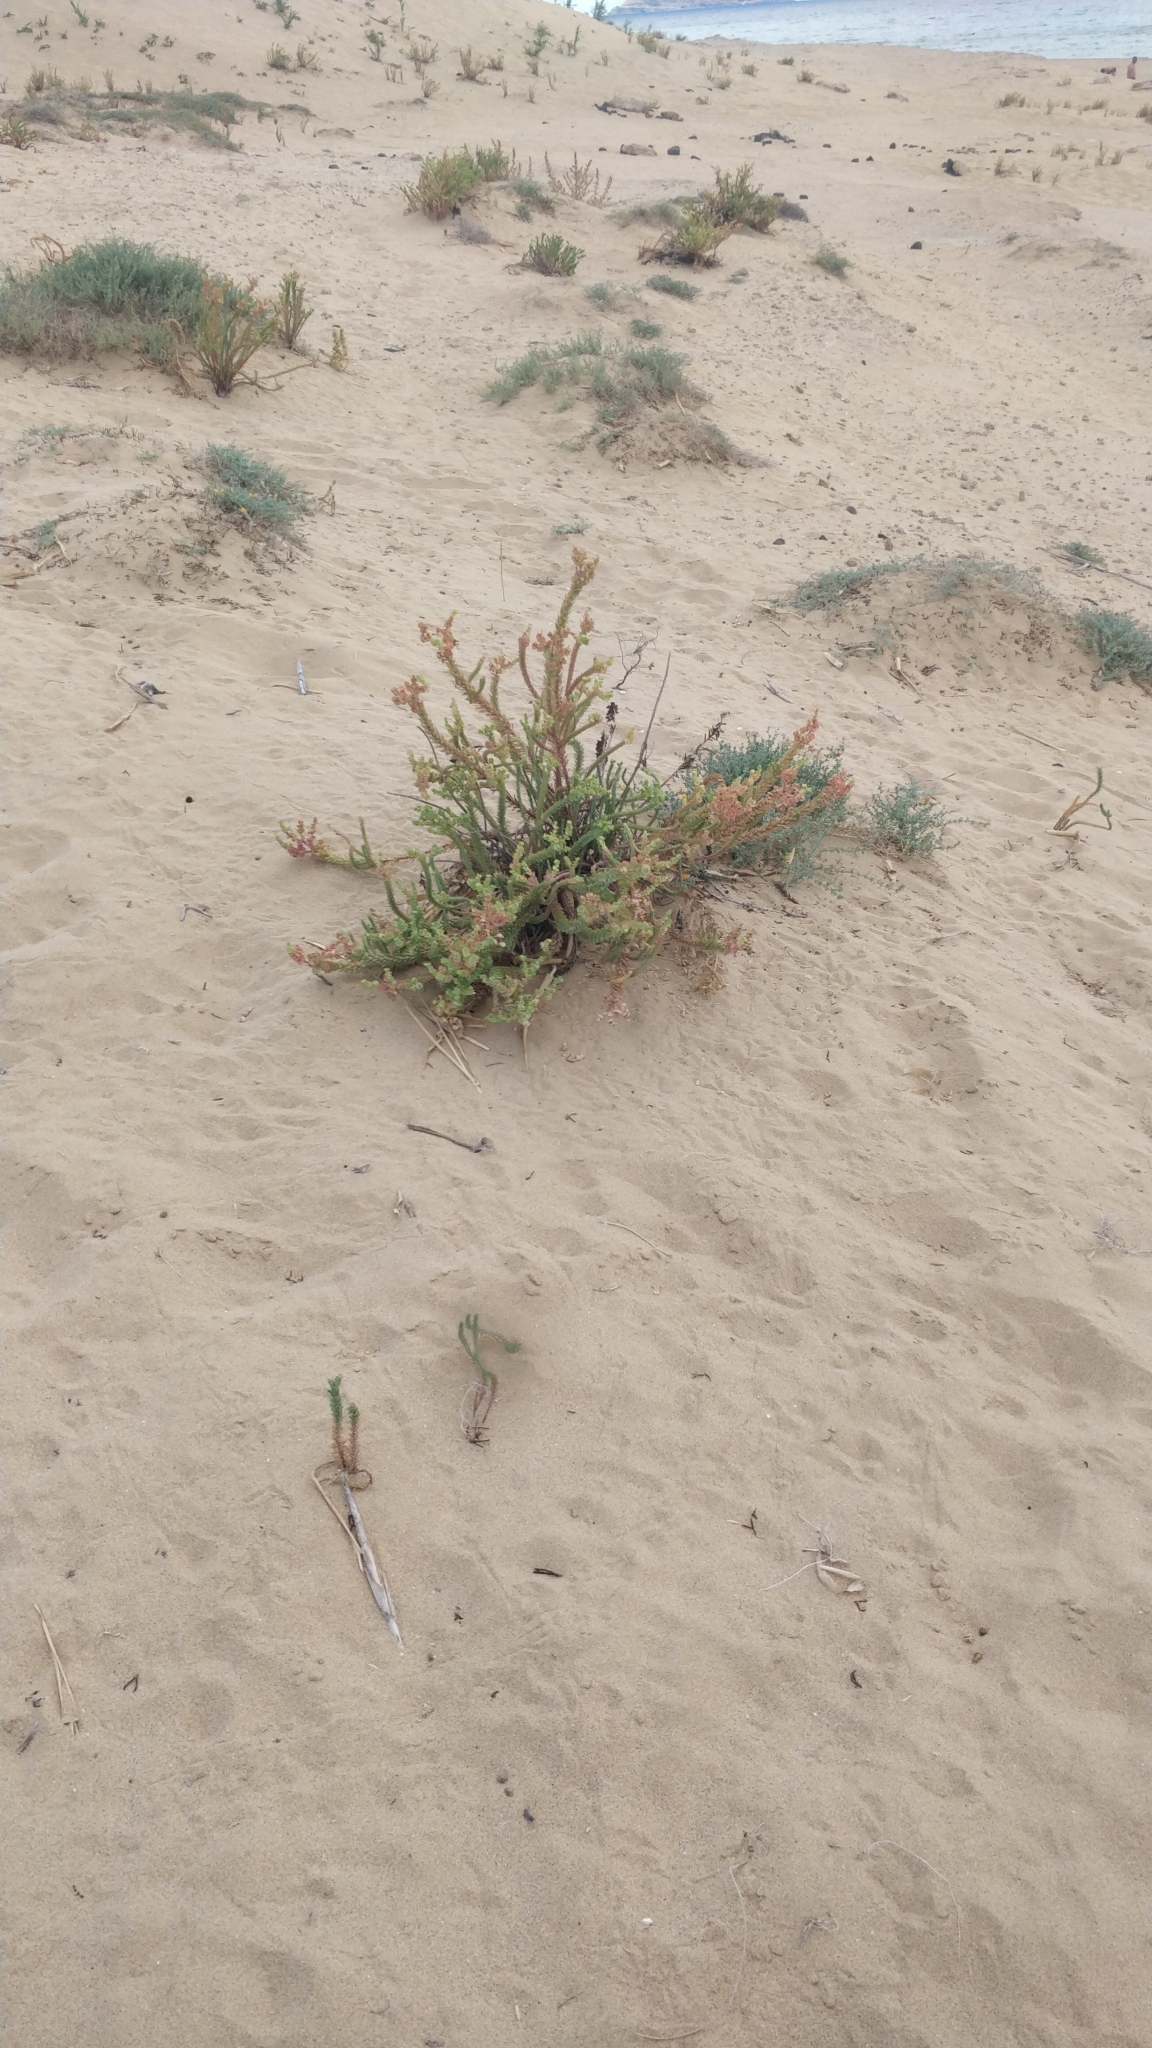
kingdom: Plantae
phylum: Tracheophyta
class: Magnoliopsida
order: Malpighiales
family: Euphorbiaceae
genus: Euphorbia
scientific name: Euphorbia paralias
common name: Sea spurge
